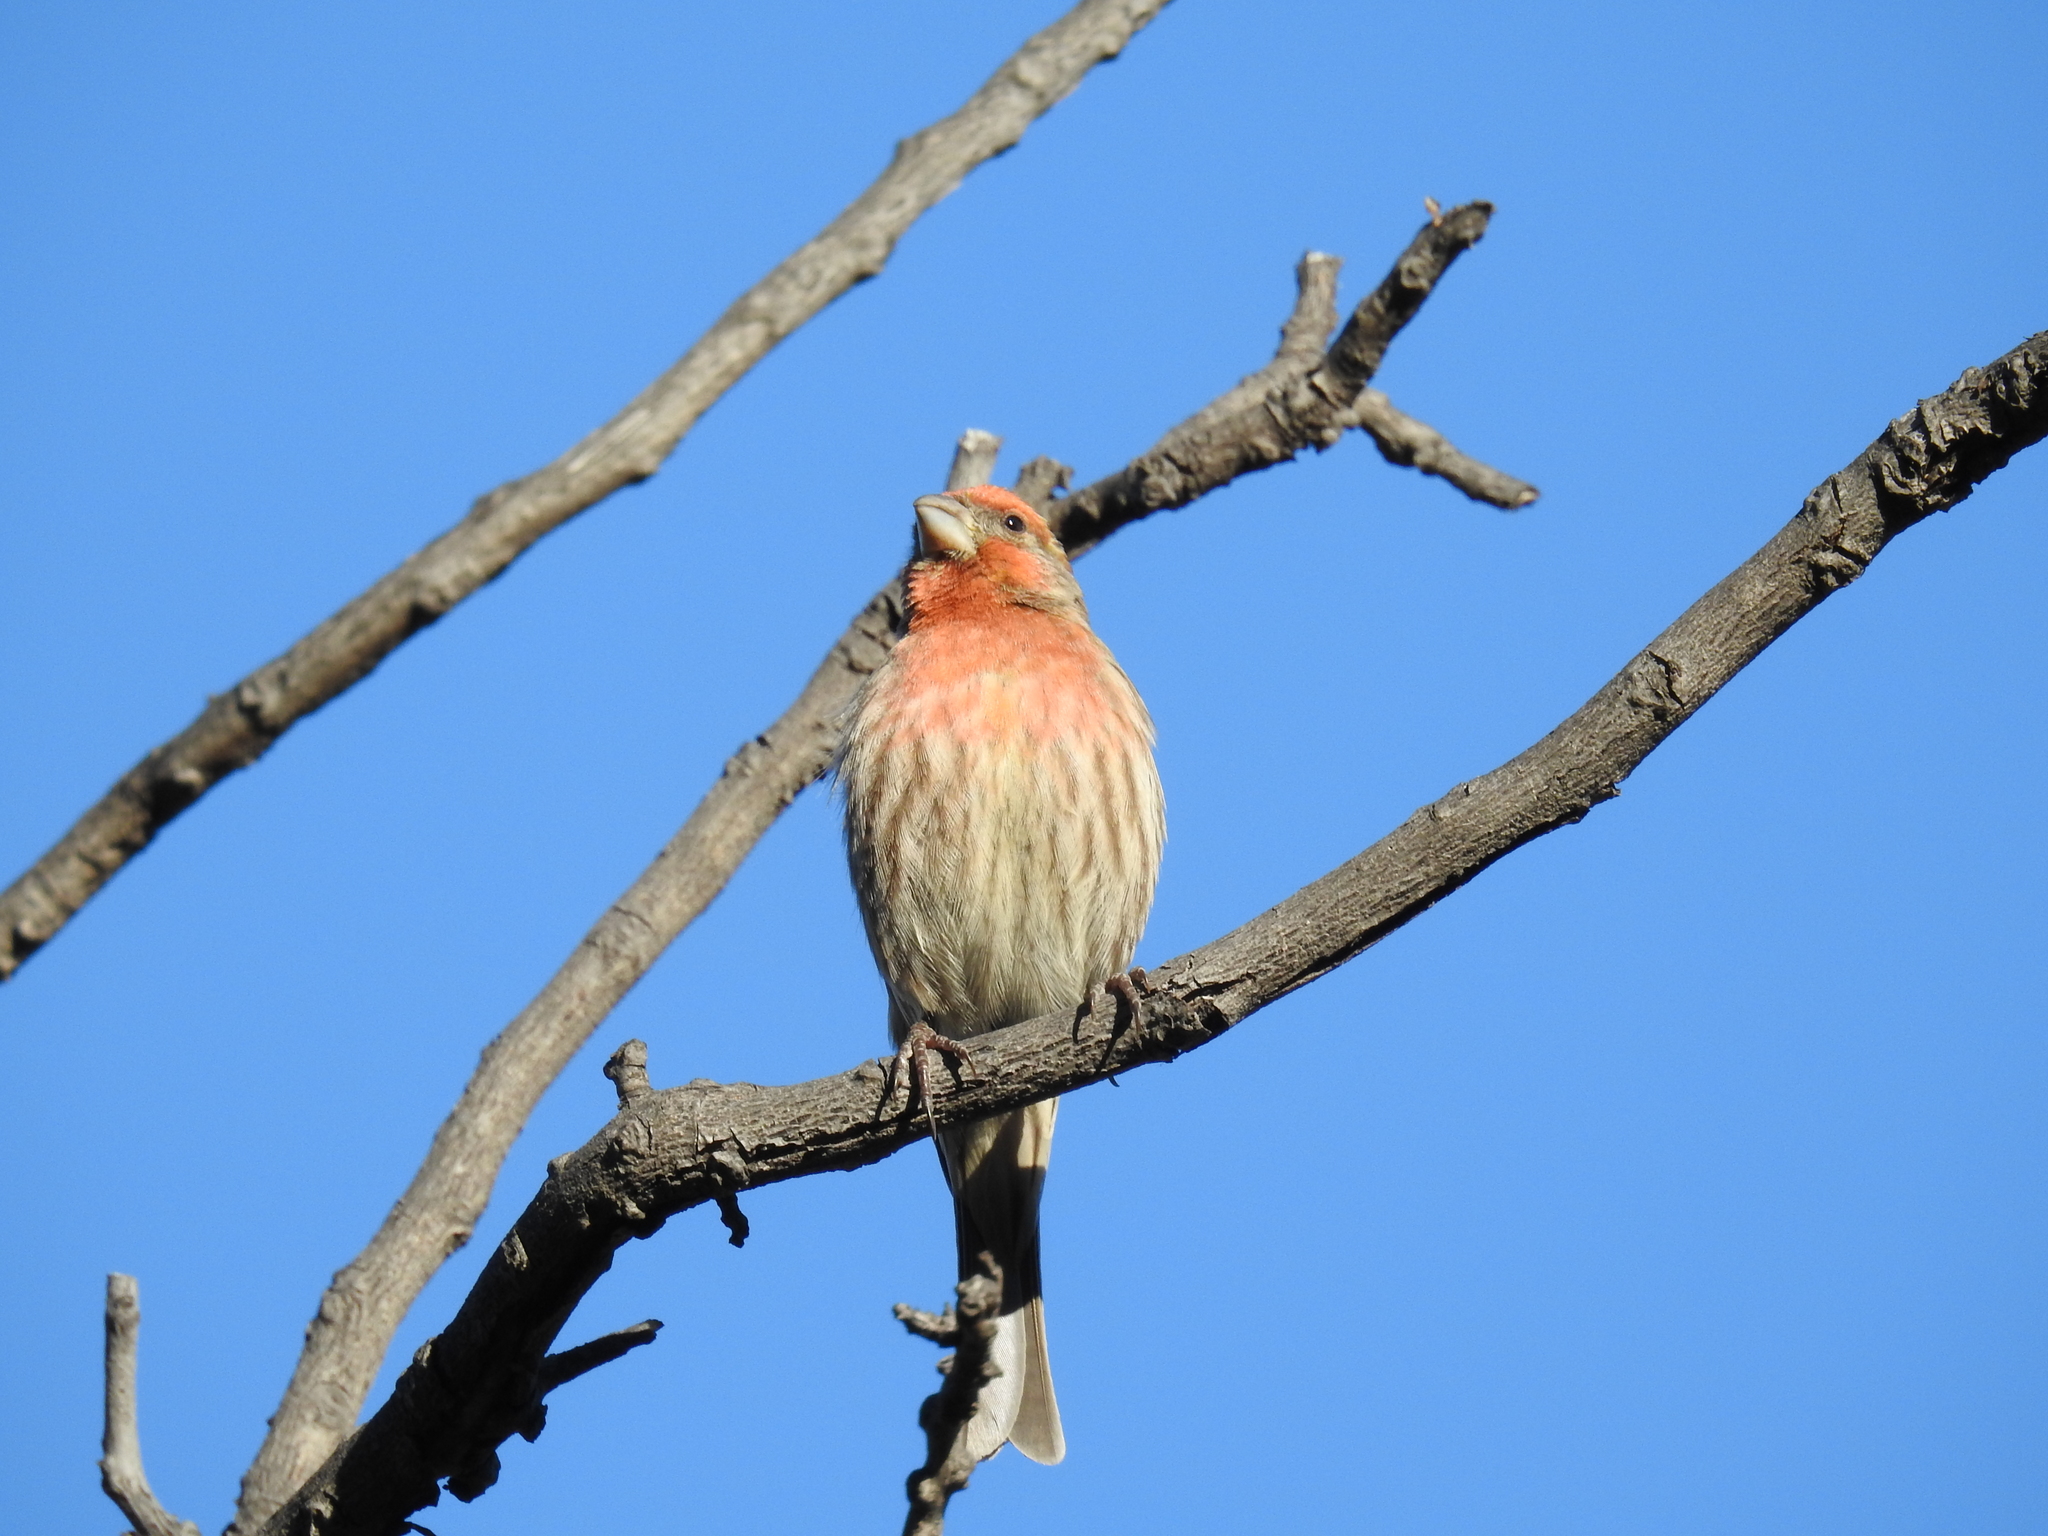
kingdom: Animalia
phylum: Chordata
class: Aves
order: Passeriformes
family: Fringillidae
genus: Haemorhous
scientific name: Haemorhous mexicanus
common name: House finch
